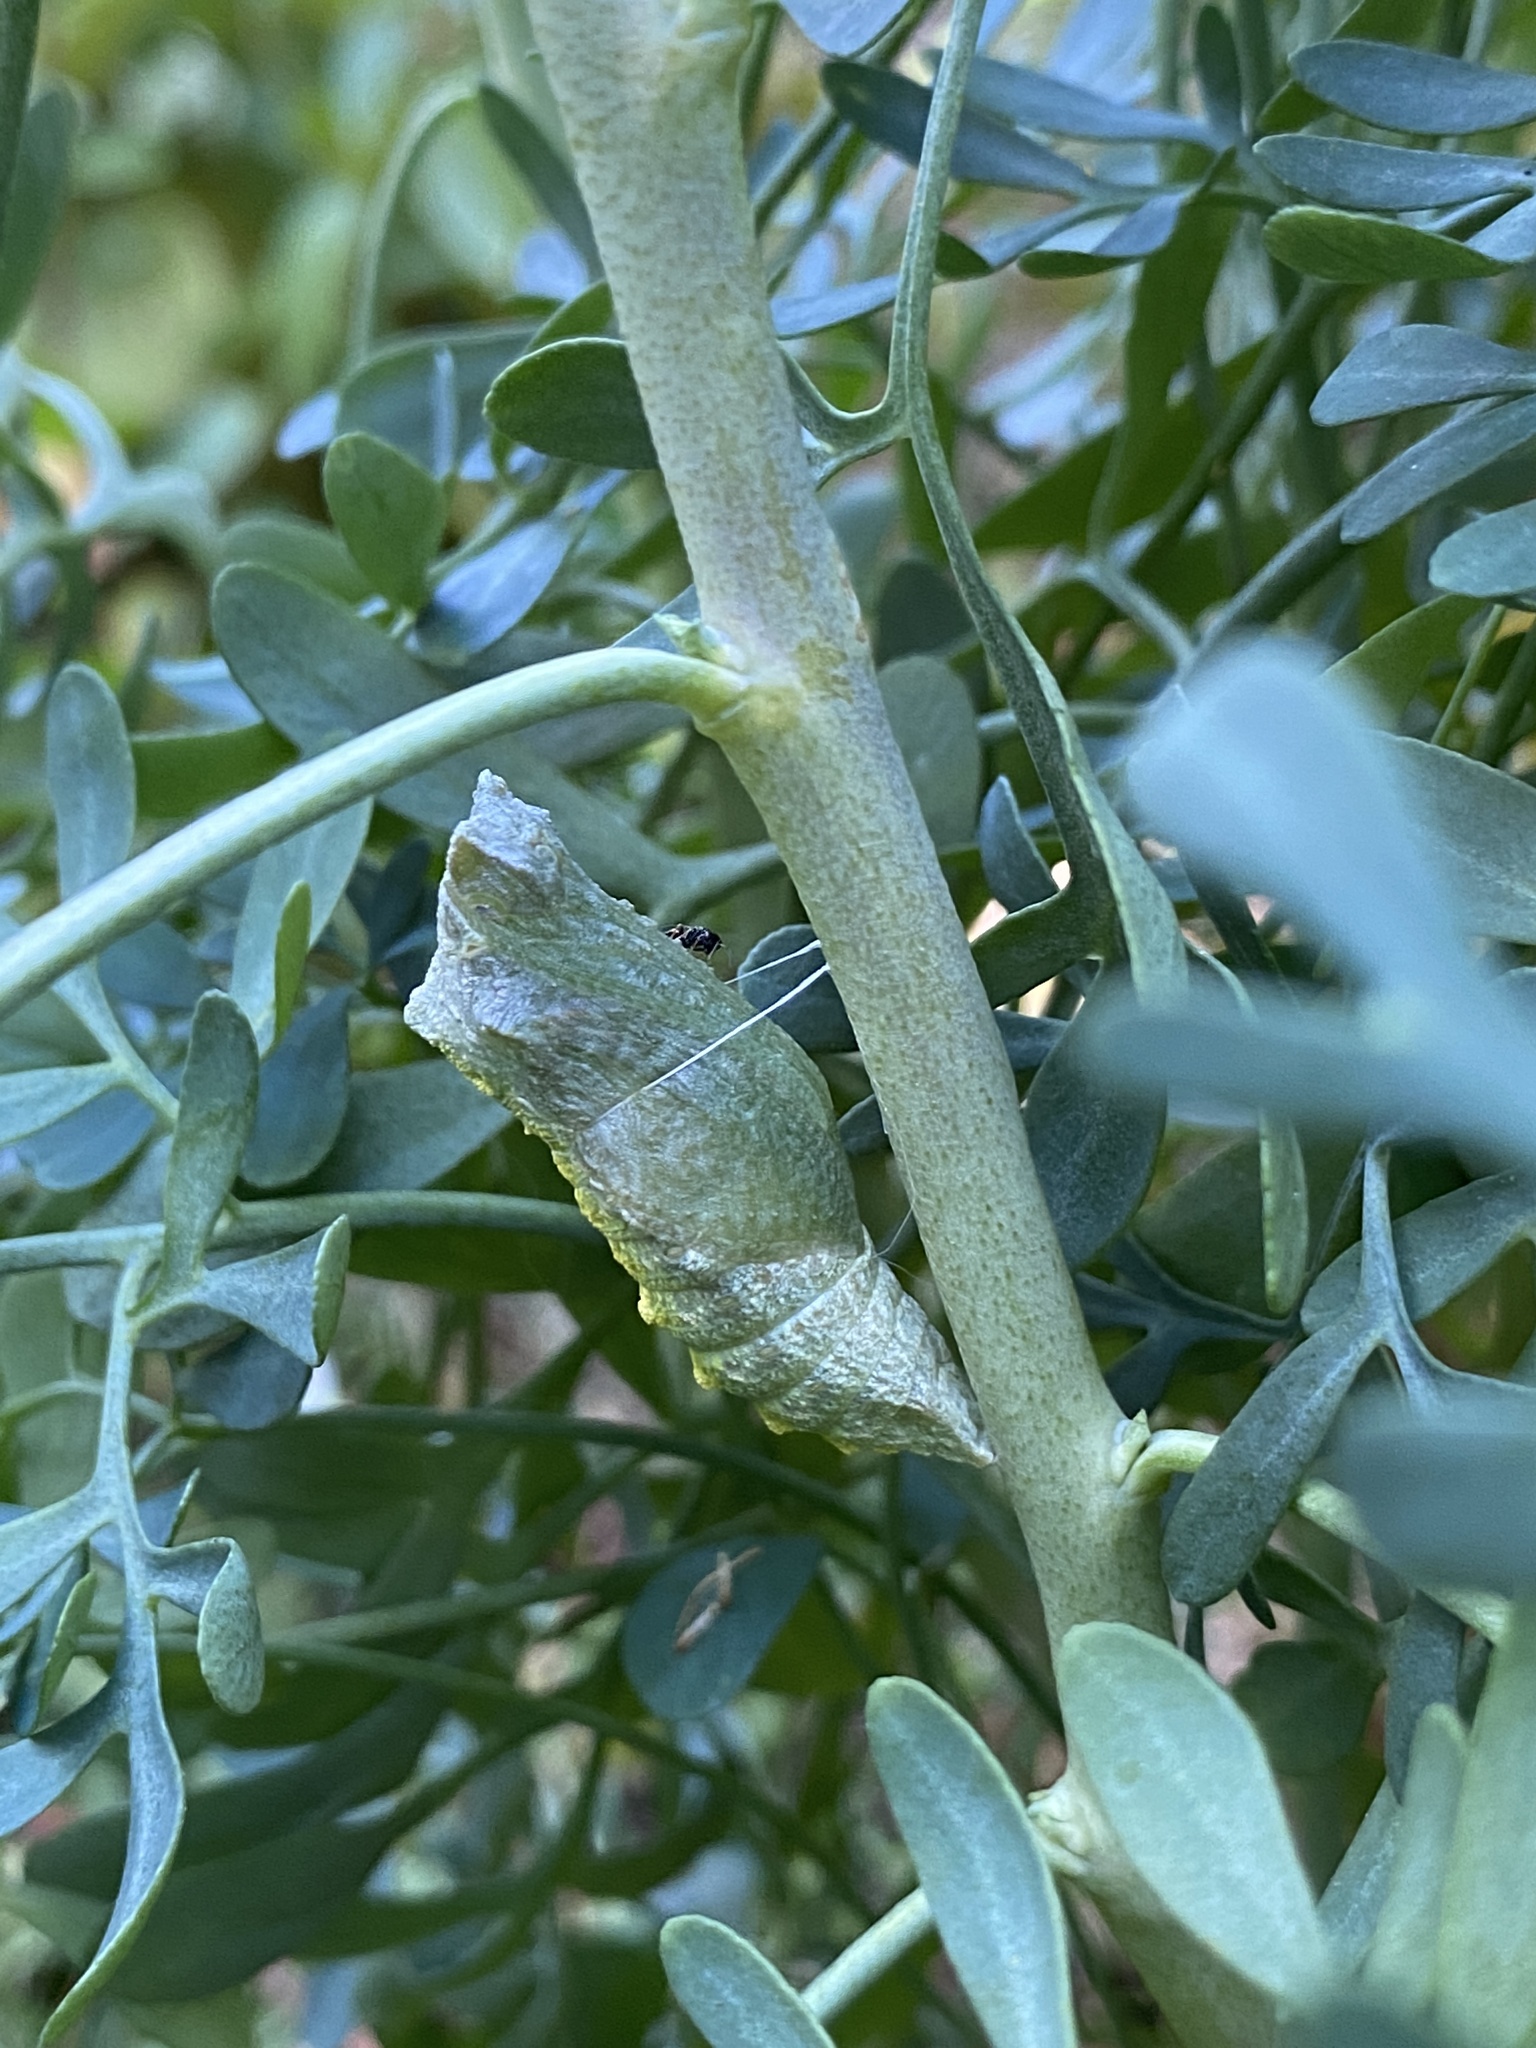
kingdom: Animalia
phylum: Arthropoda
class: Insecta
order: Lepidoptera
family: Papilionidae
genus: Papilio
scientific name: Papilio machaon
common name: Swallowtail
